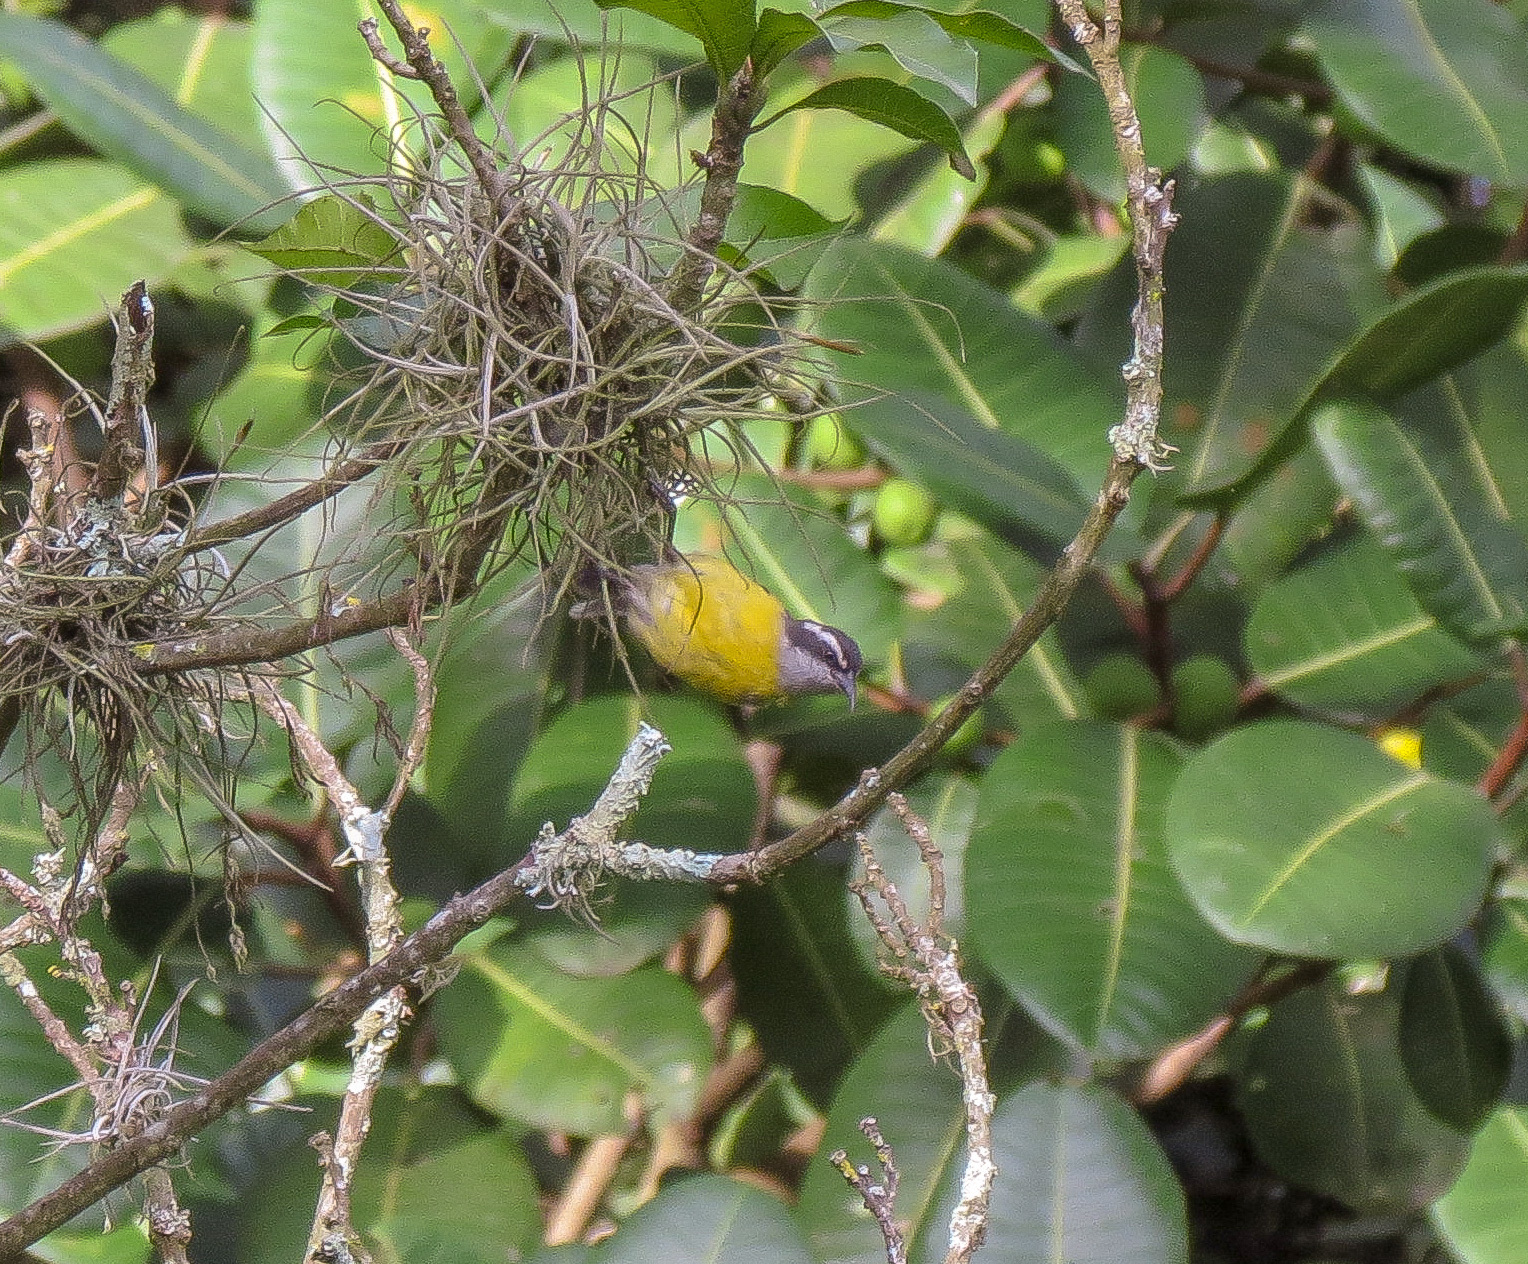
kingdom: Animalia
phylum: Chordata
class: Aves
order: Passeriformes
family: Thraupidae
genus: Coereba
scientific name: Coereba flaveola
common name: Bananaquit
